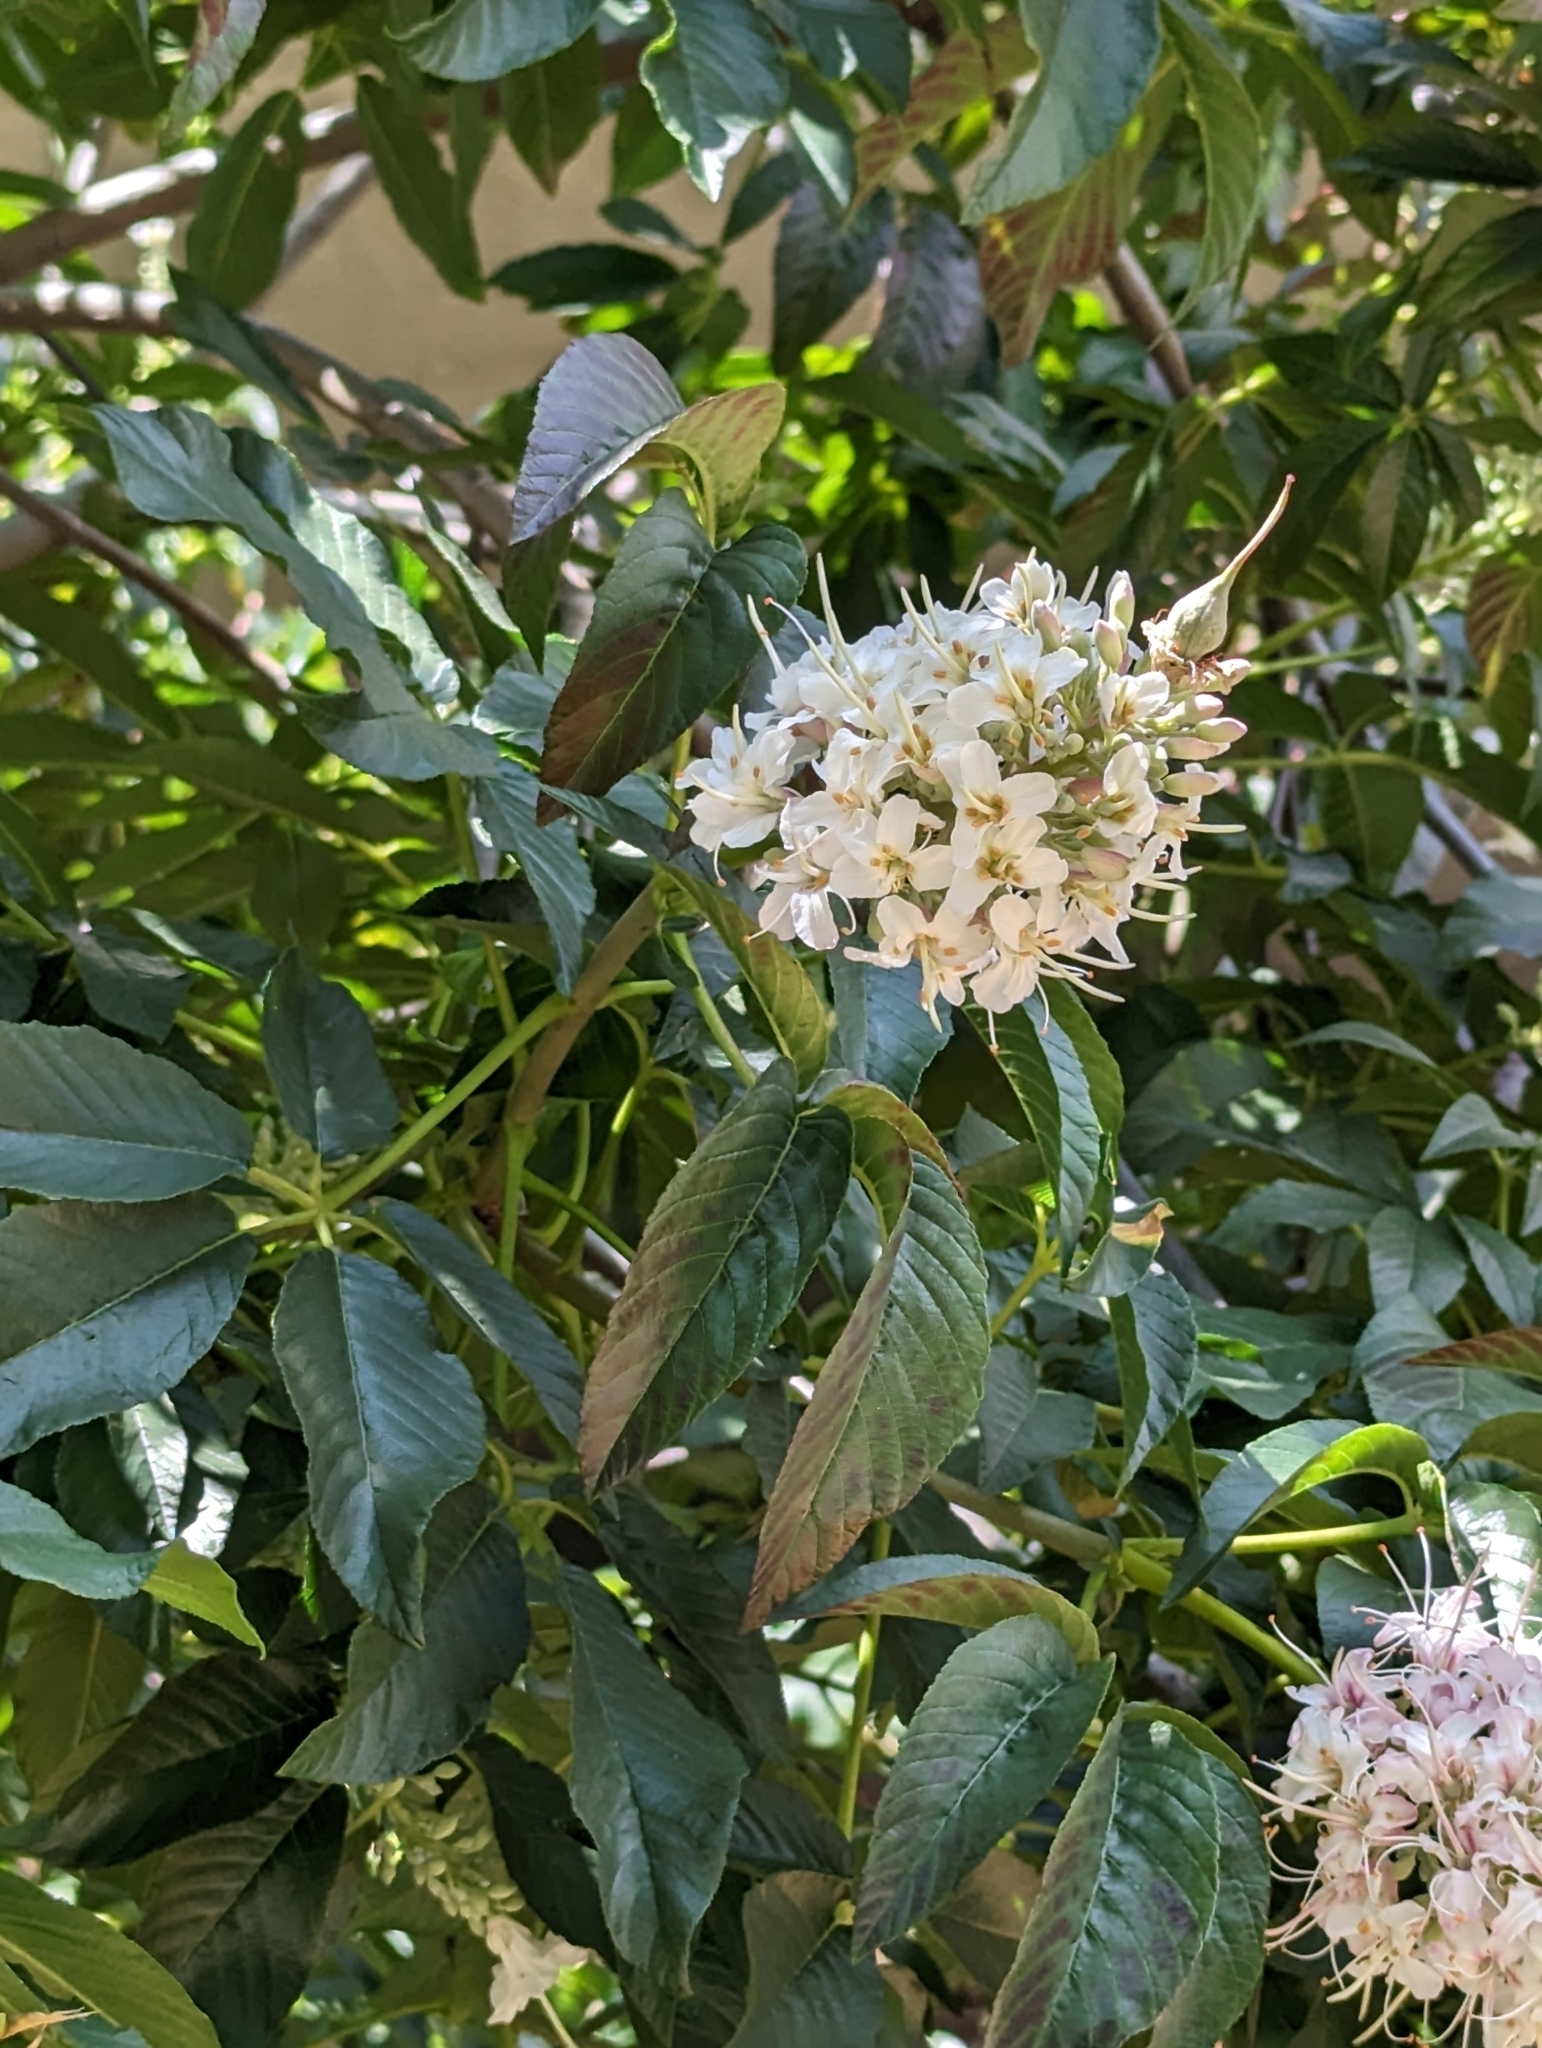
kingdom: Plantae
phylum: Tracheophyta
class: Magnoliopsida
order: Sapindales
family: Sapindaceae
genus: Aesculus
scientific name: Aesculus californica
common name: California buckeye
